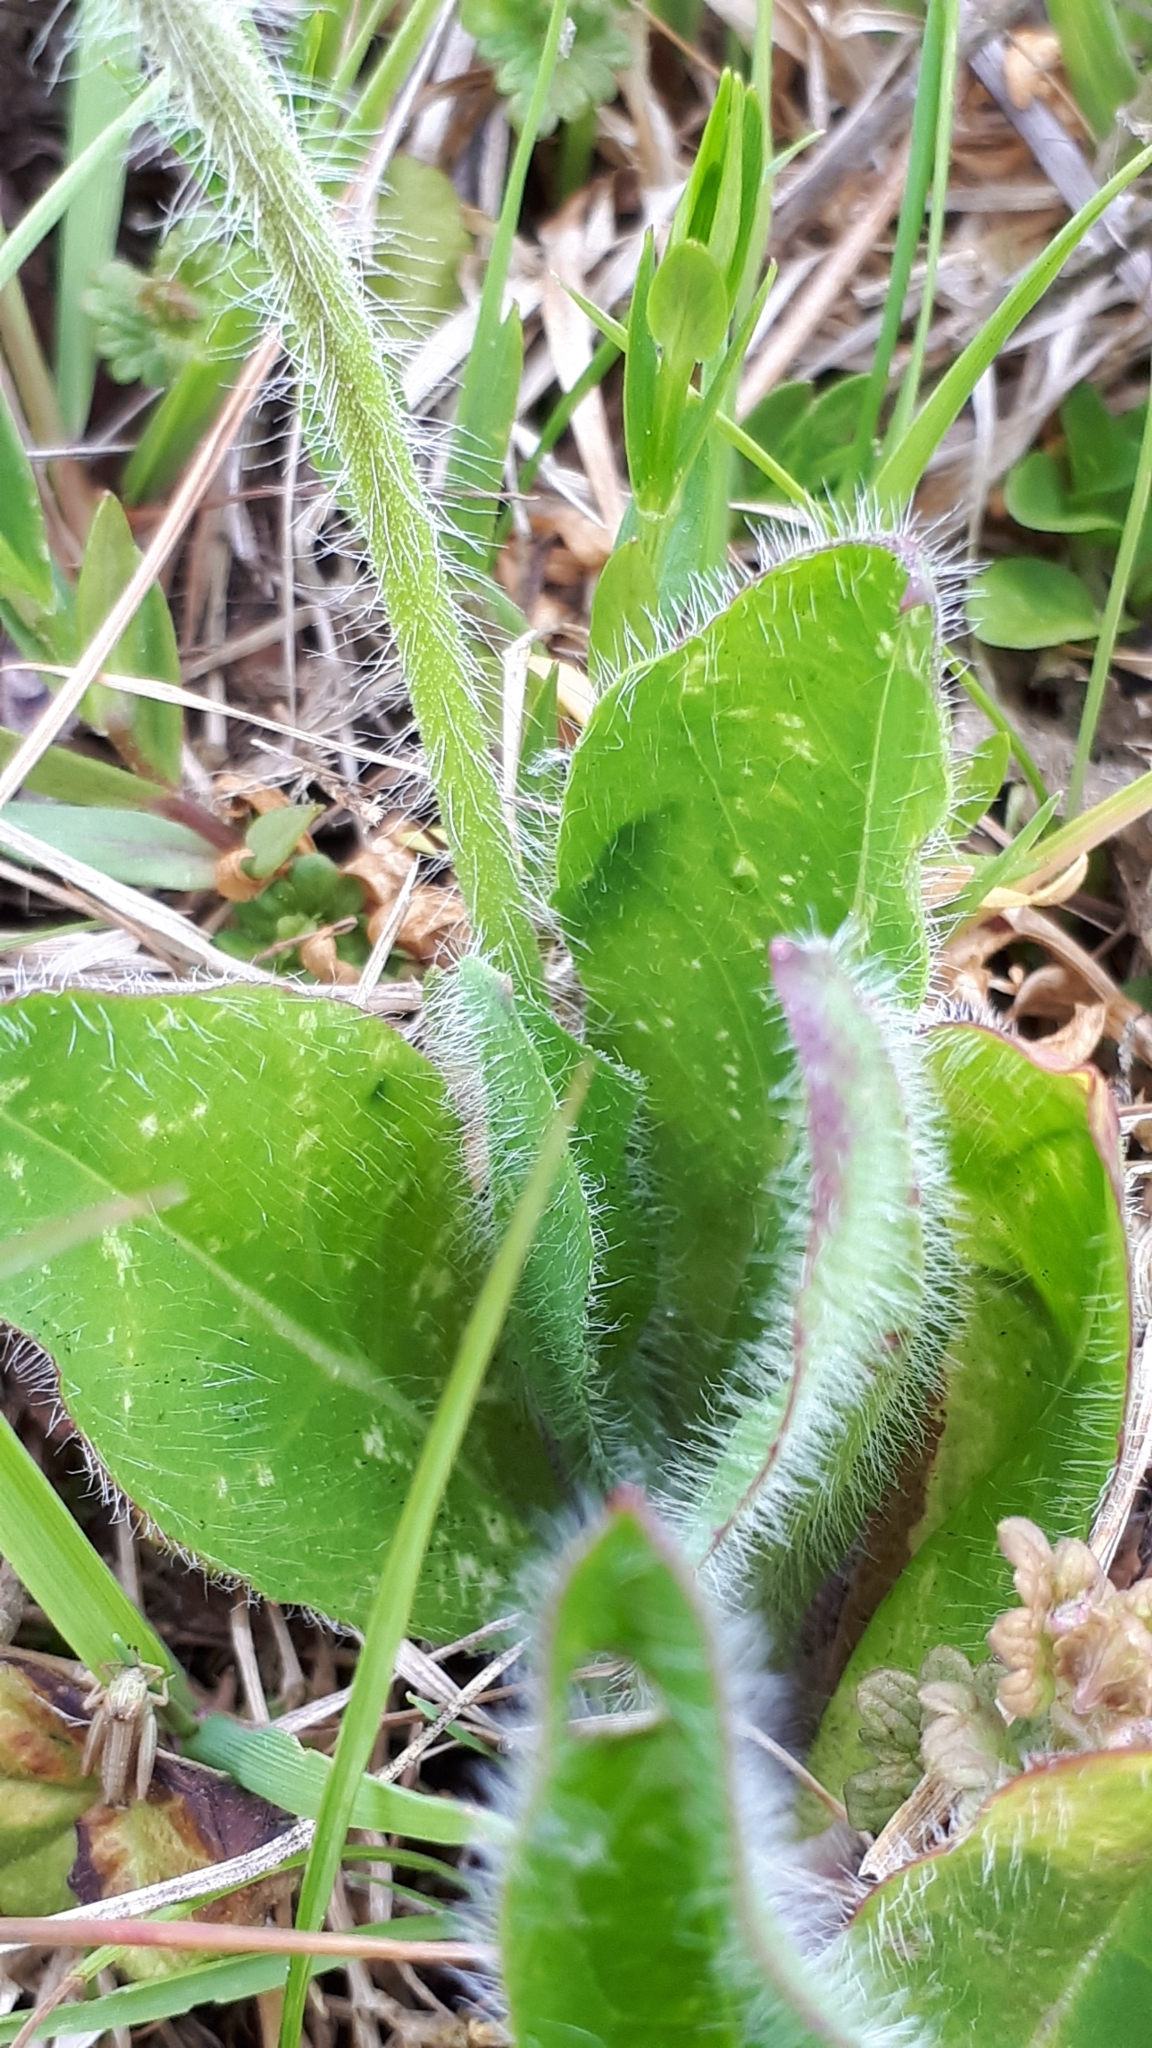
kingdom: Plantae
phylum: Tracheophyta
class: Magnoliopsida
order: Asterales
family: Asteraceae
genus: Pilosella
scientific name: Pilosella aurantiaca
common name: Fox-and-cubs
